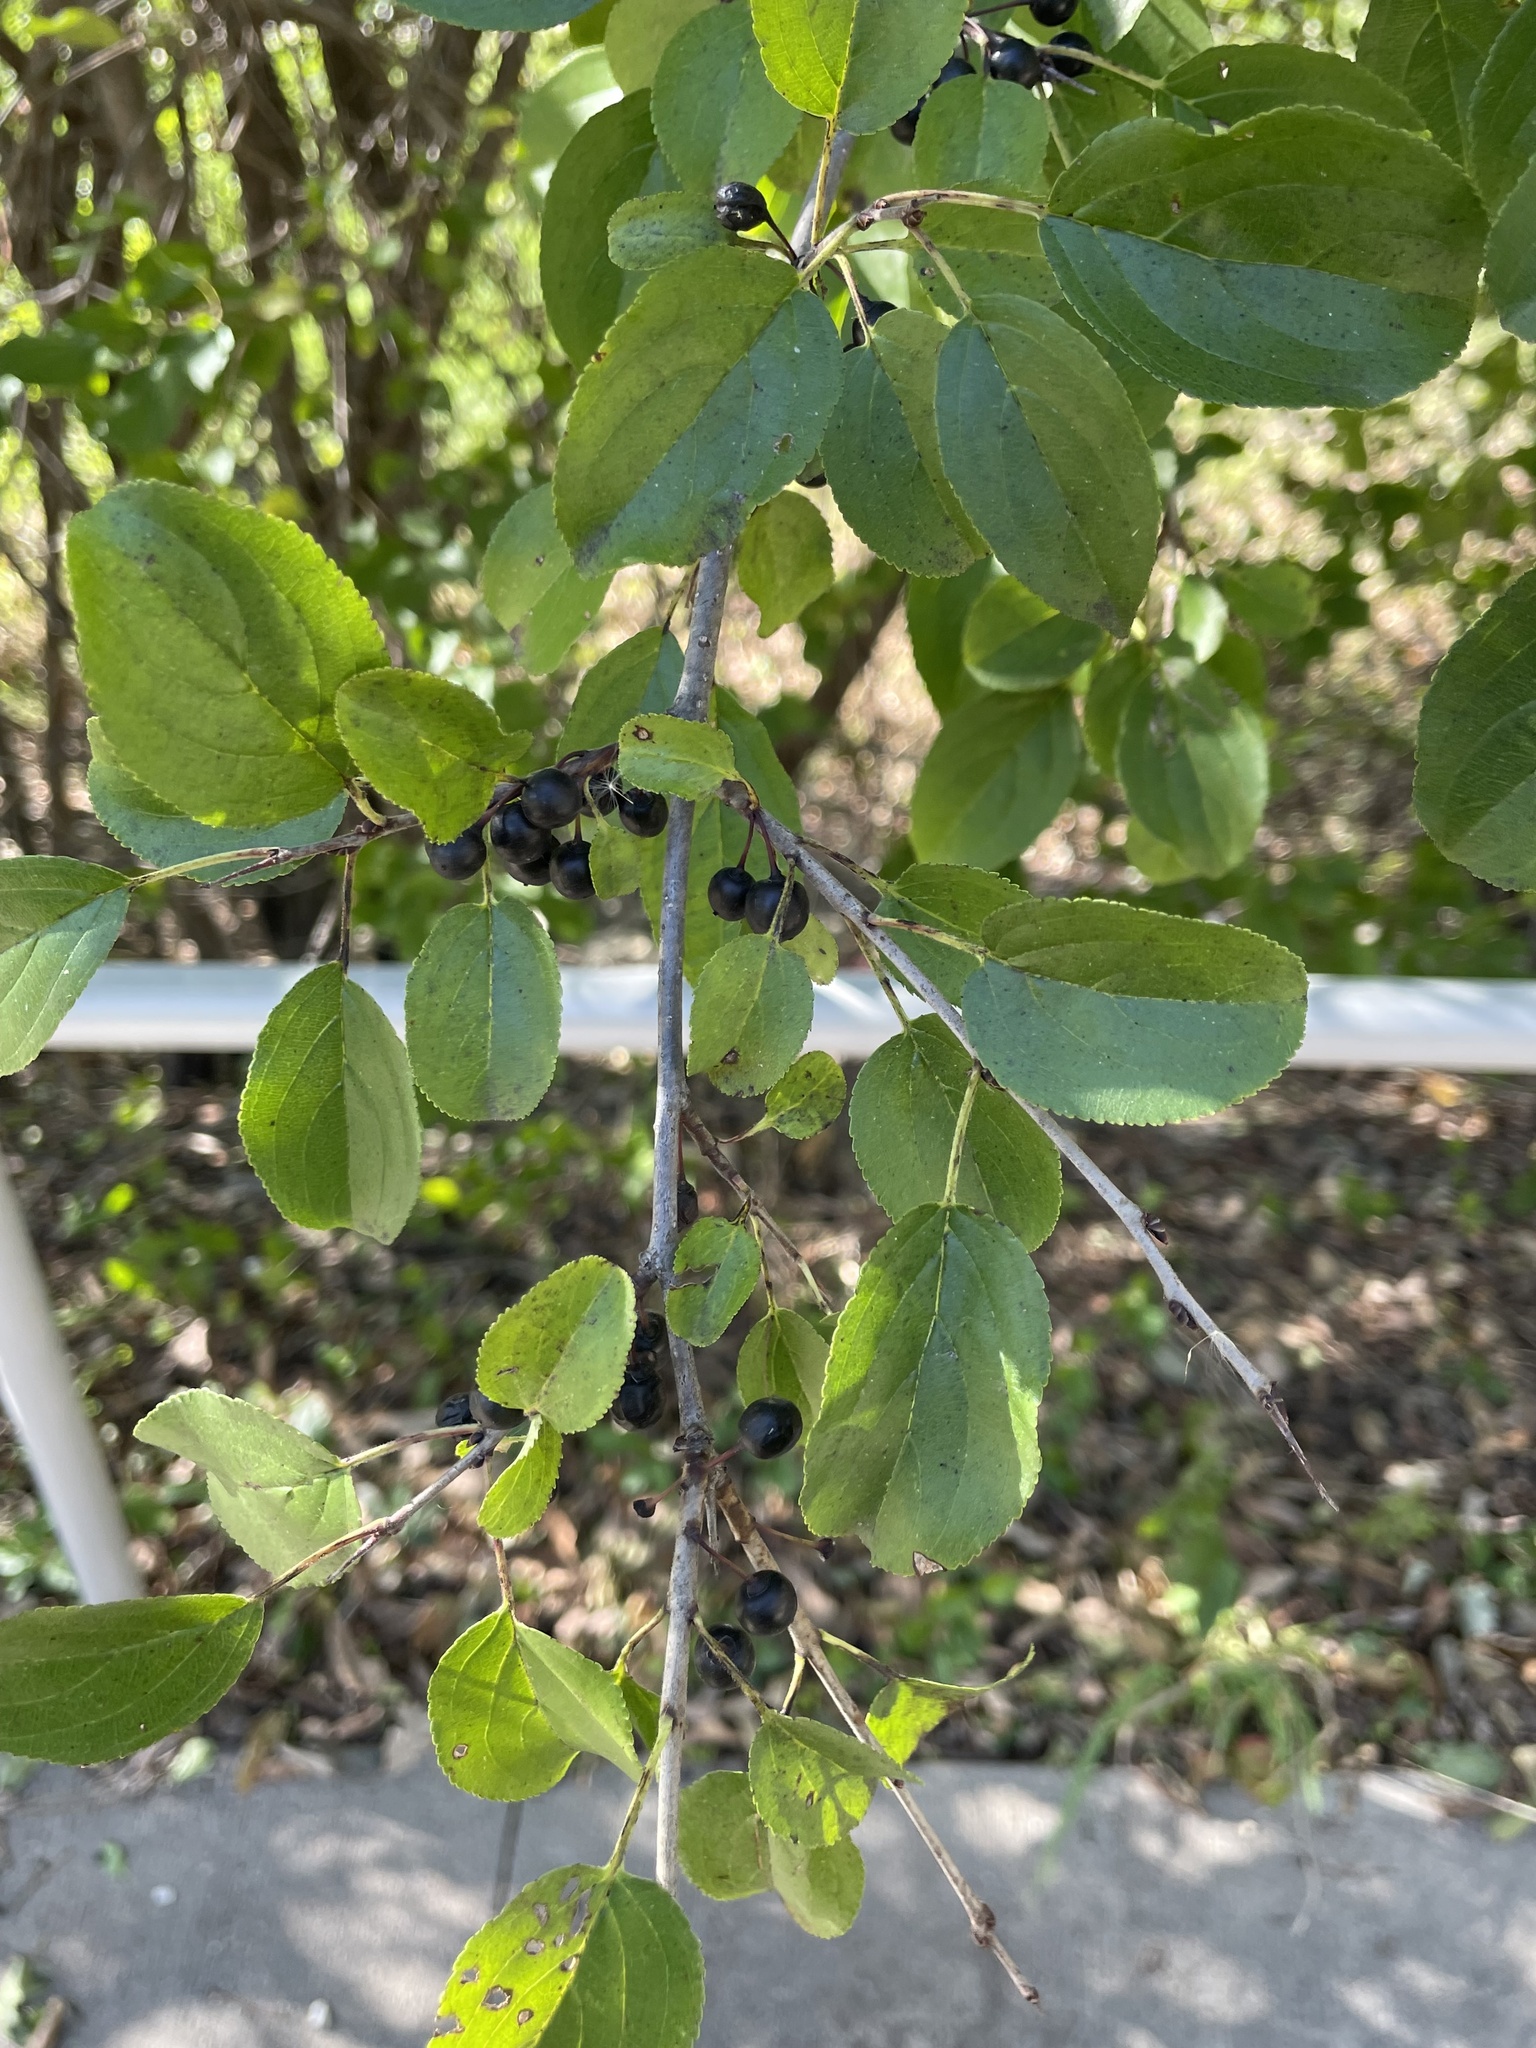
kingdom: Plantae
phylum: Tracheophyta
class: Magnoliopsida
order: Rosales
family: Rhamnaceae
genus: Rhamnus
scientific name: Rhamnus cathartica
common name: Common buckthorn
